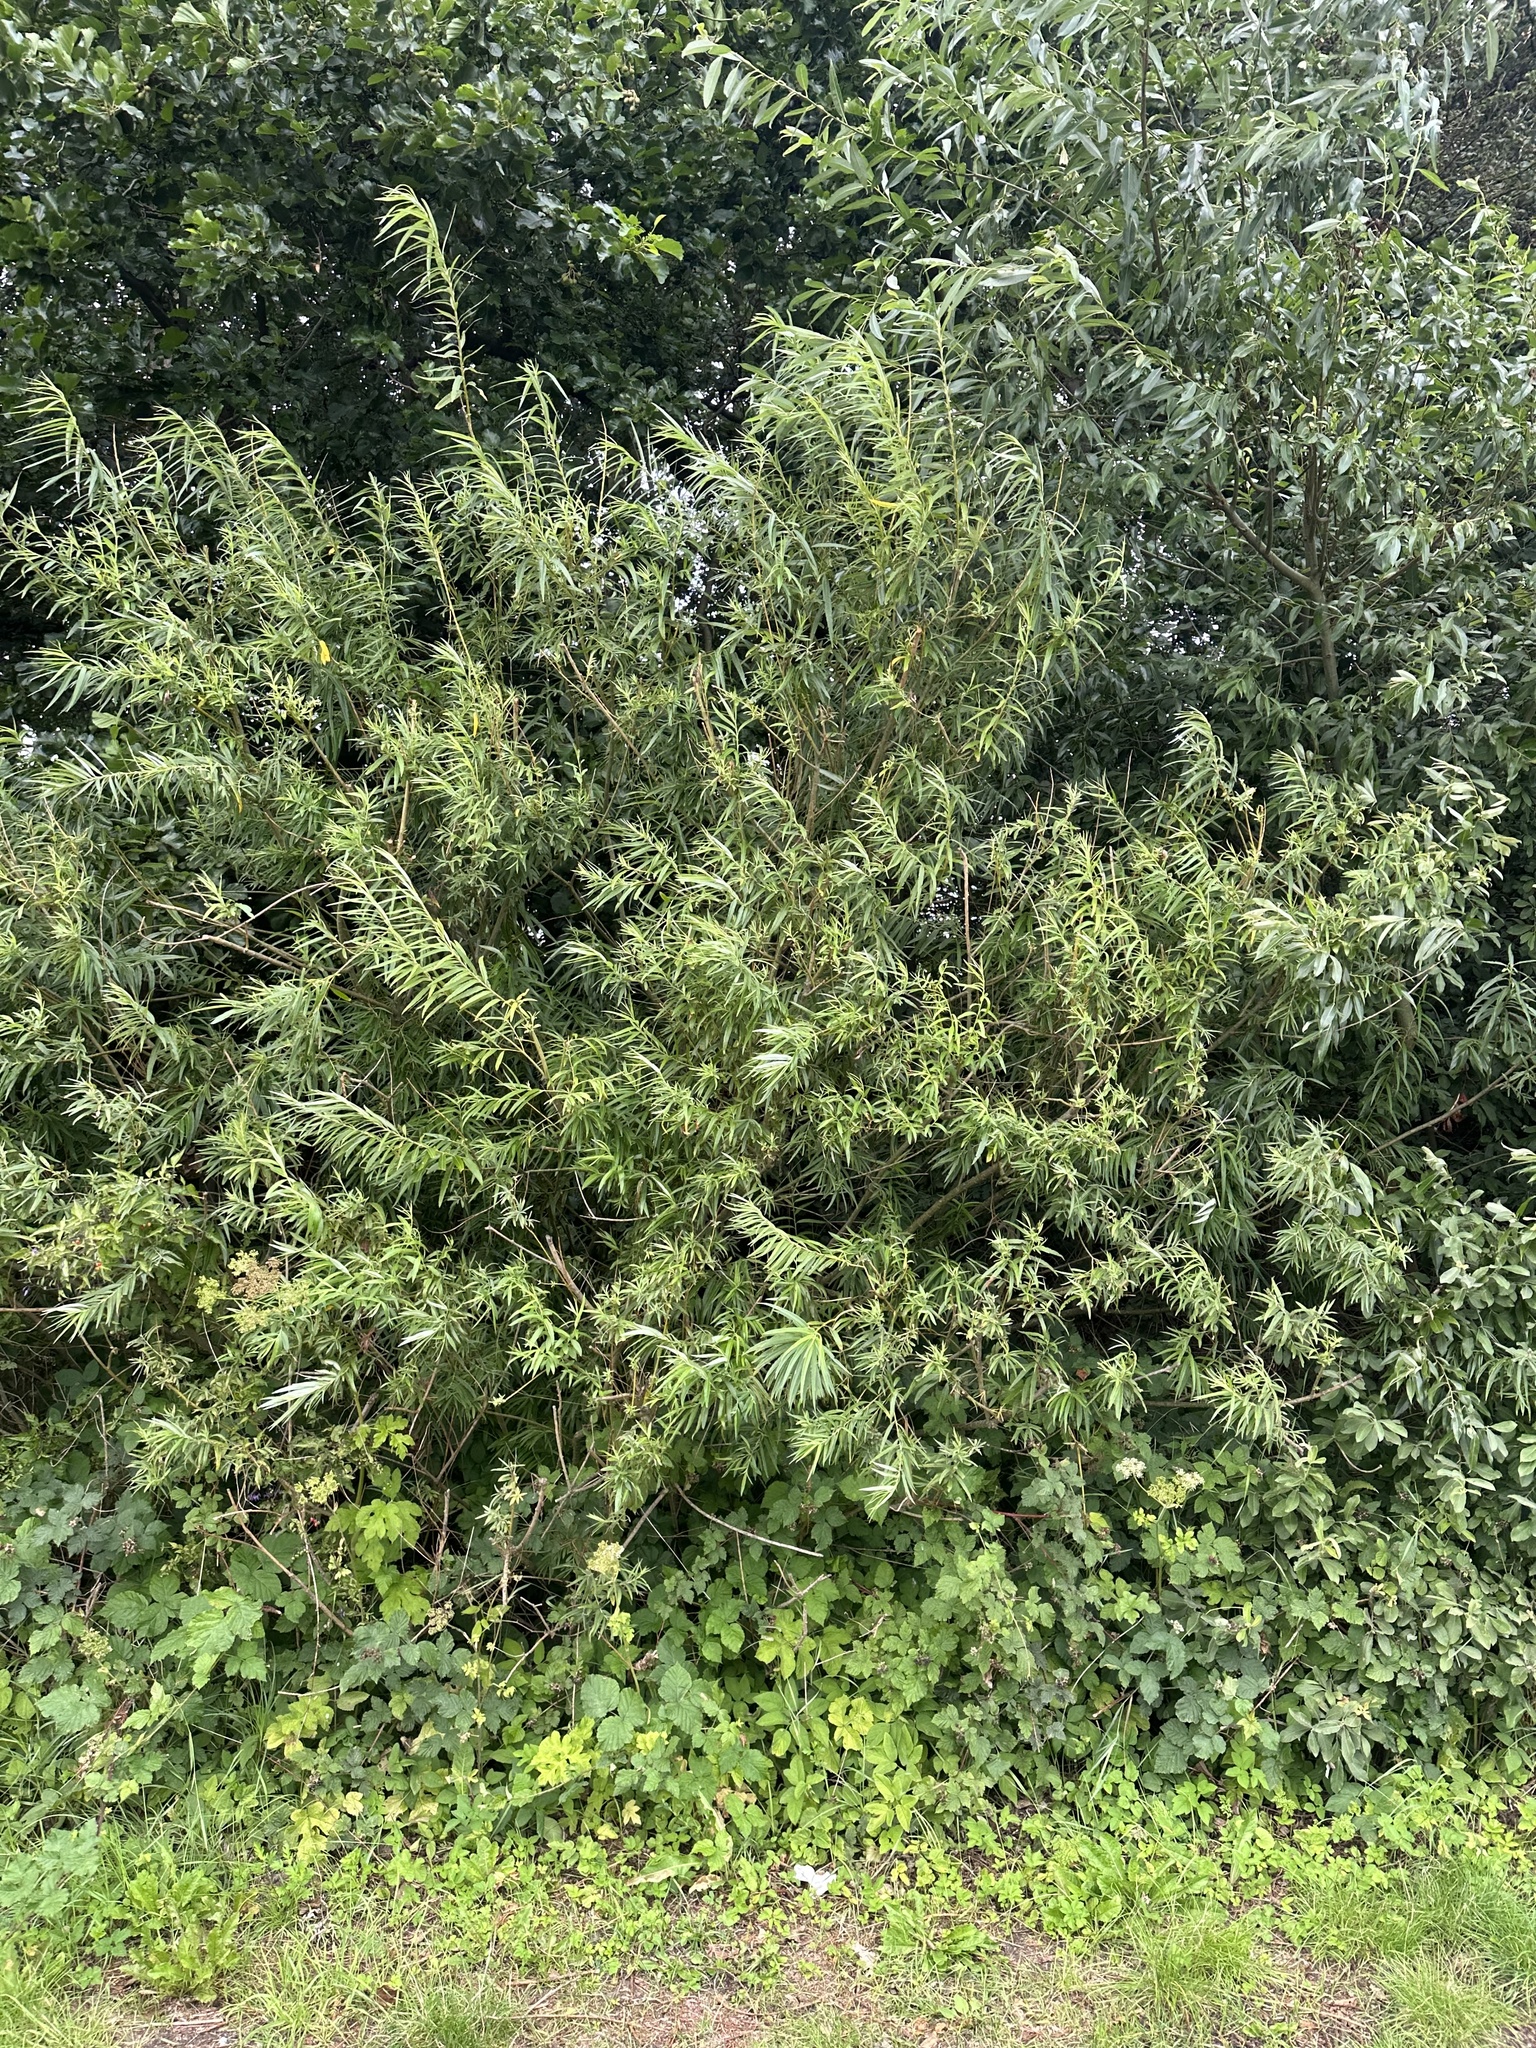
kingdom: Plantae
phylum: Tracheophyta
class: Magnoliopsida
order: Malpighiales
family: Salicaceae
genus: Salix
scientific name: Salix viminalis
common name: Osier
